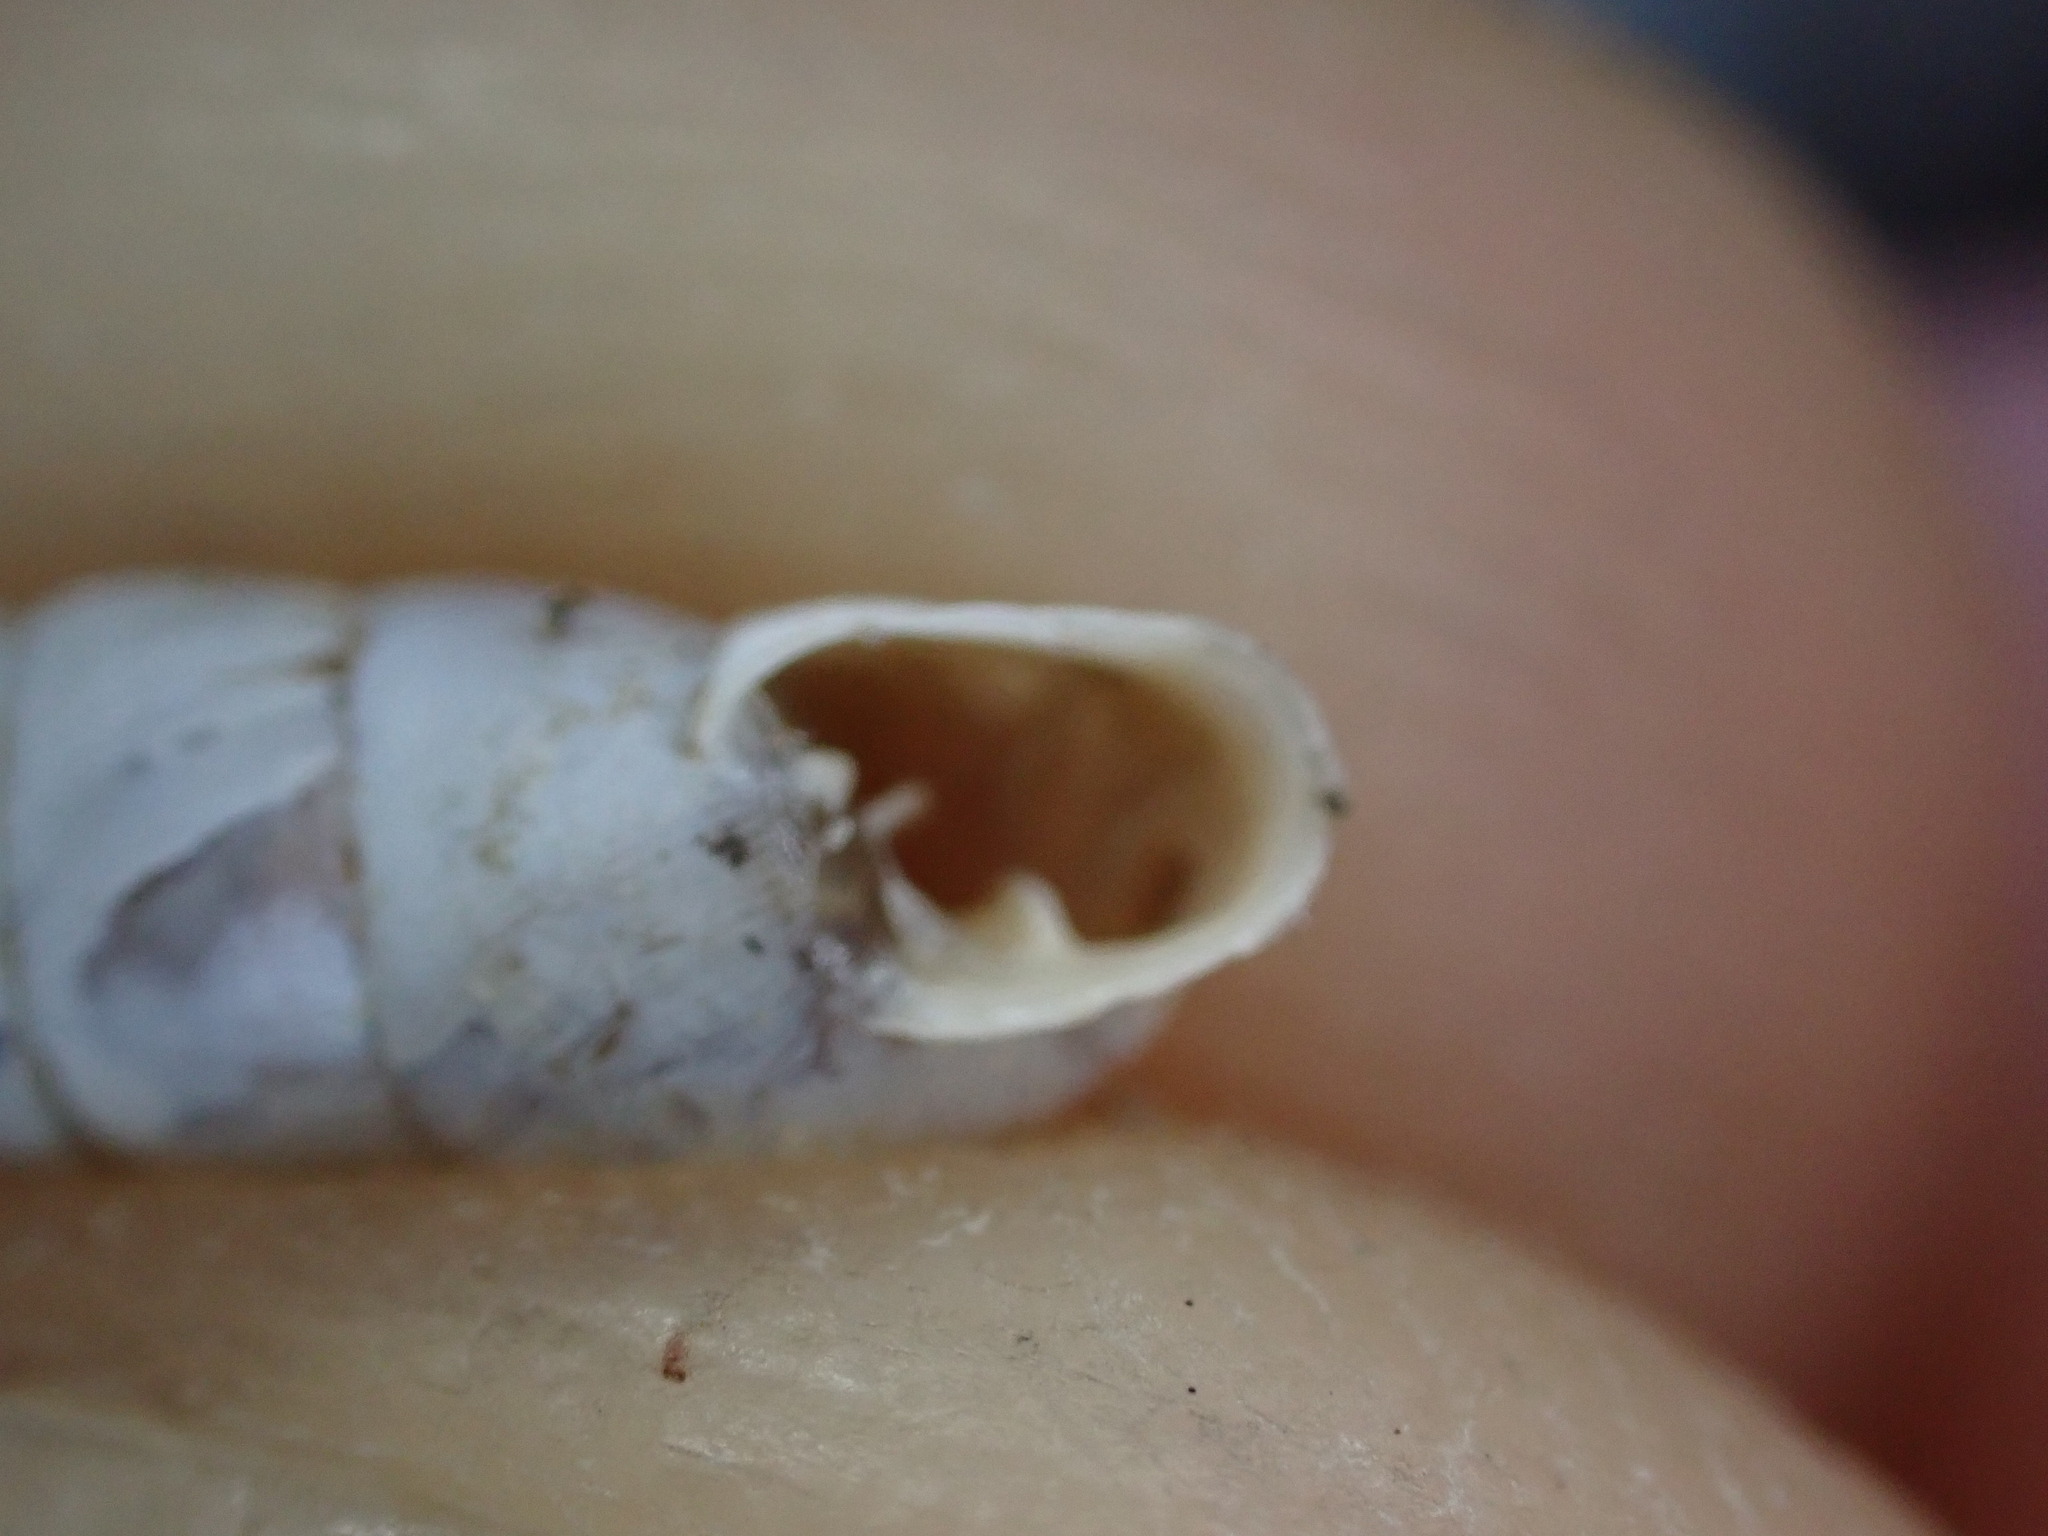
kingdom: Animalia
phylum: Mollusca
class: Gastropoda
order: Stylommatophora
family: Chondrinidae
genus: Solatopupa
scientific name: Solatopupa similis
